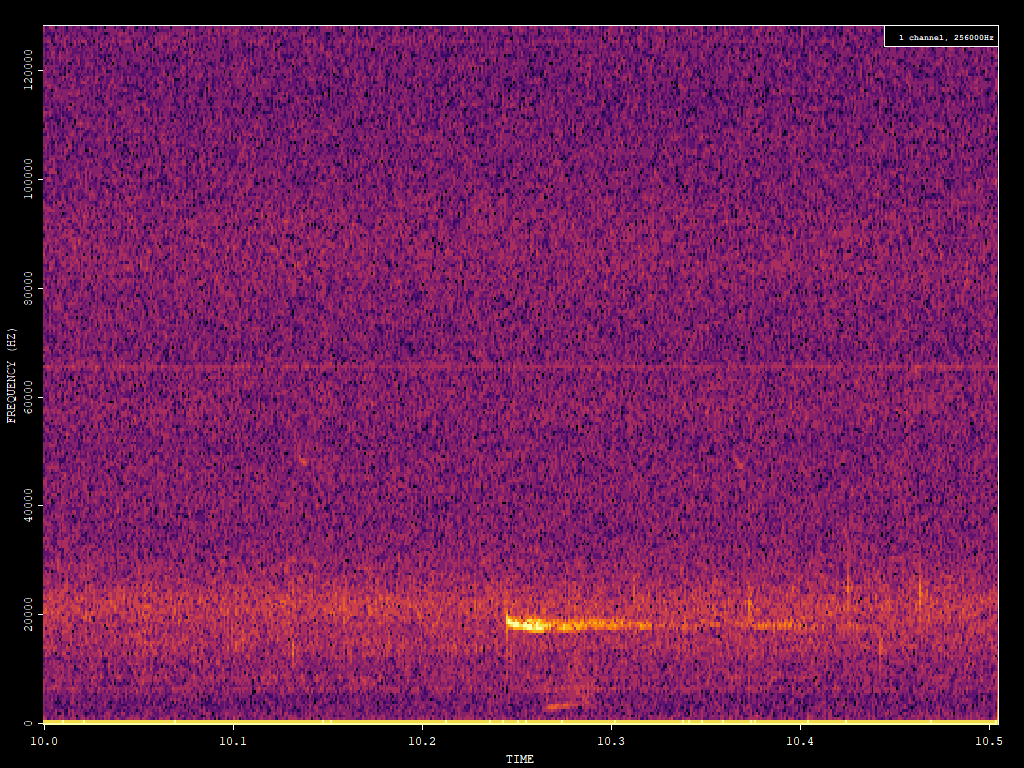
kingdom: Animalia
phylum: Chordata
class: Mammalia
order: Chiroptera
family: Vespertilionidae
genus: Nyctalus
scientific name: Nyctalus noctula
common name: Noctule
